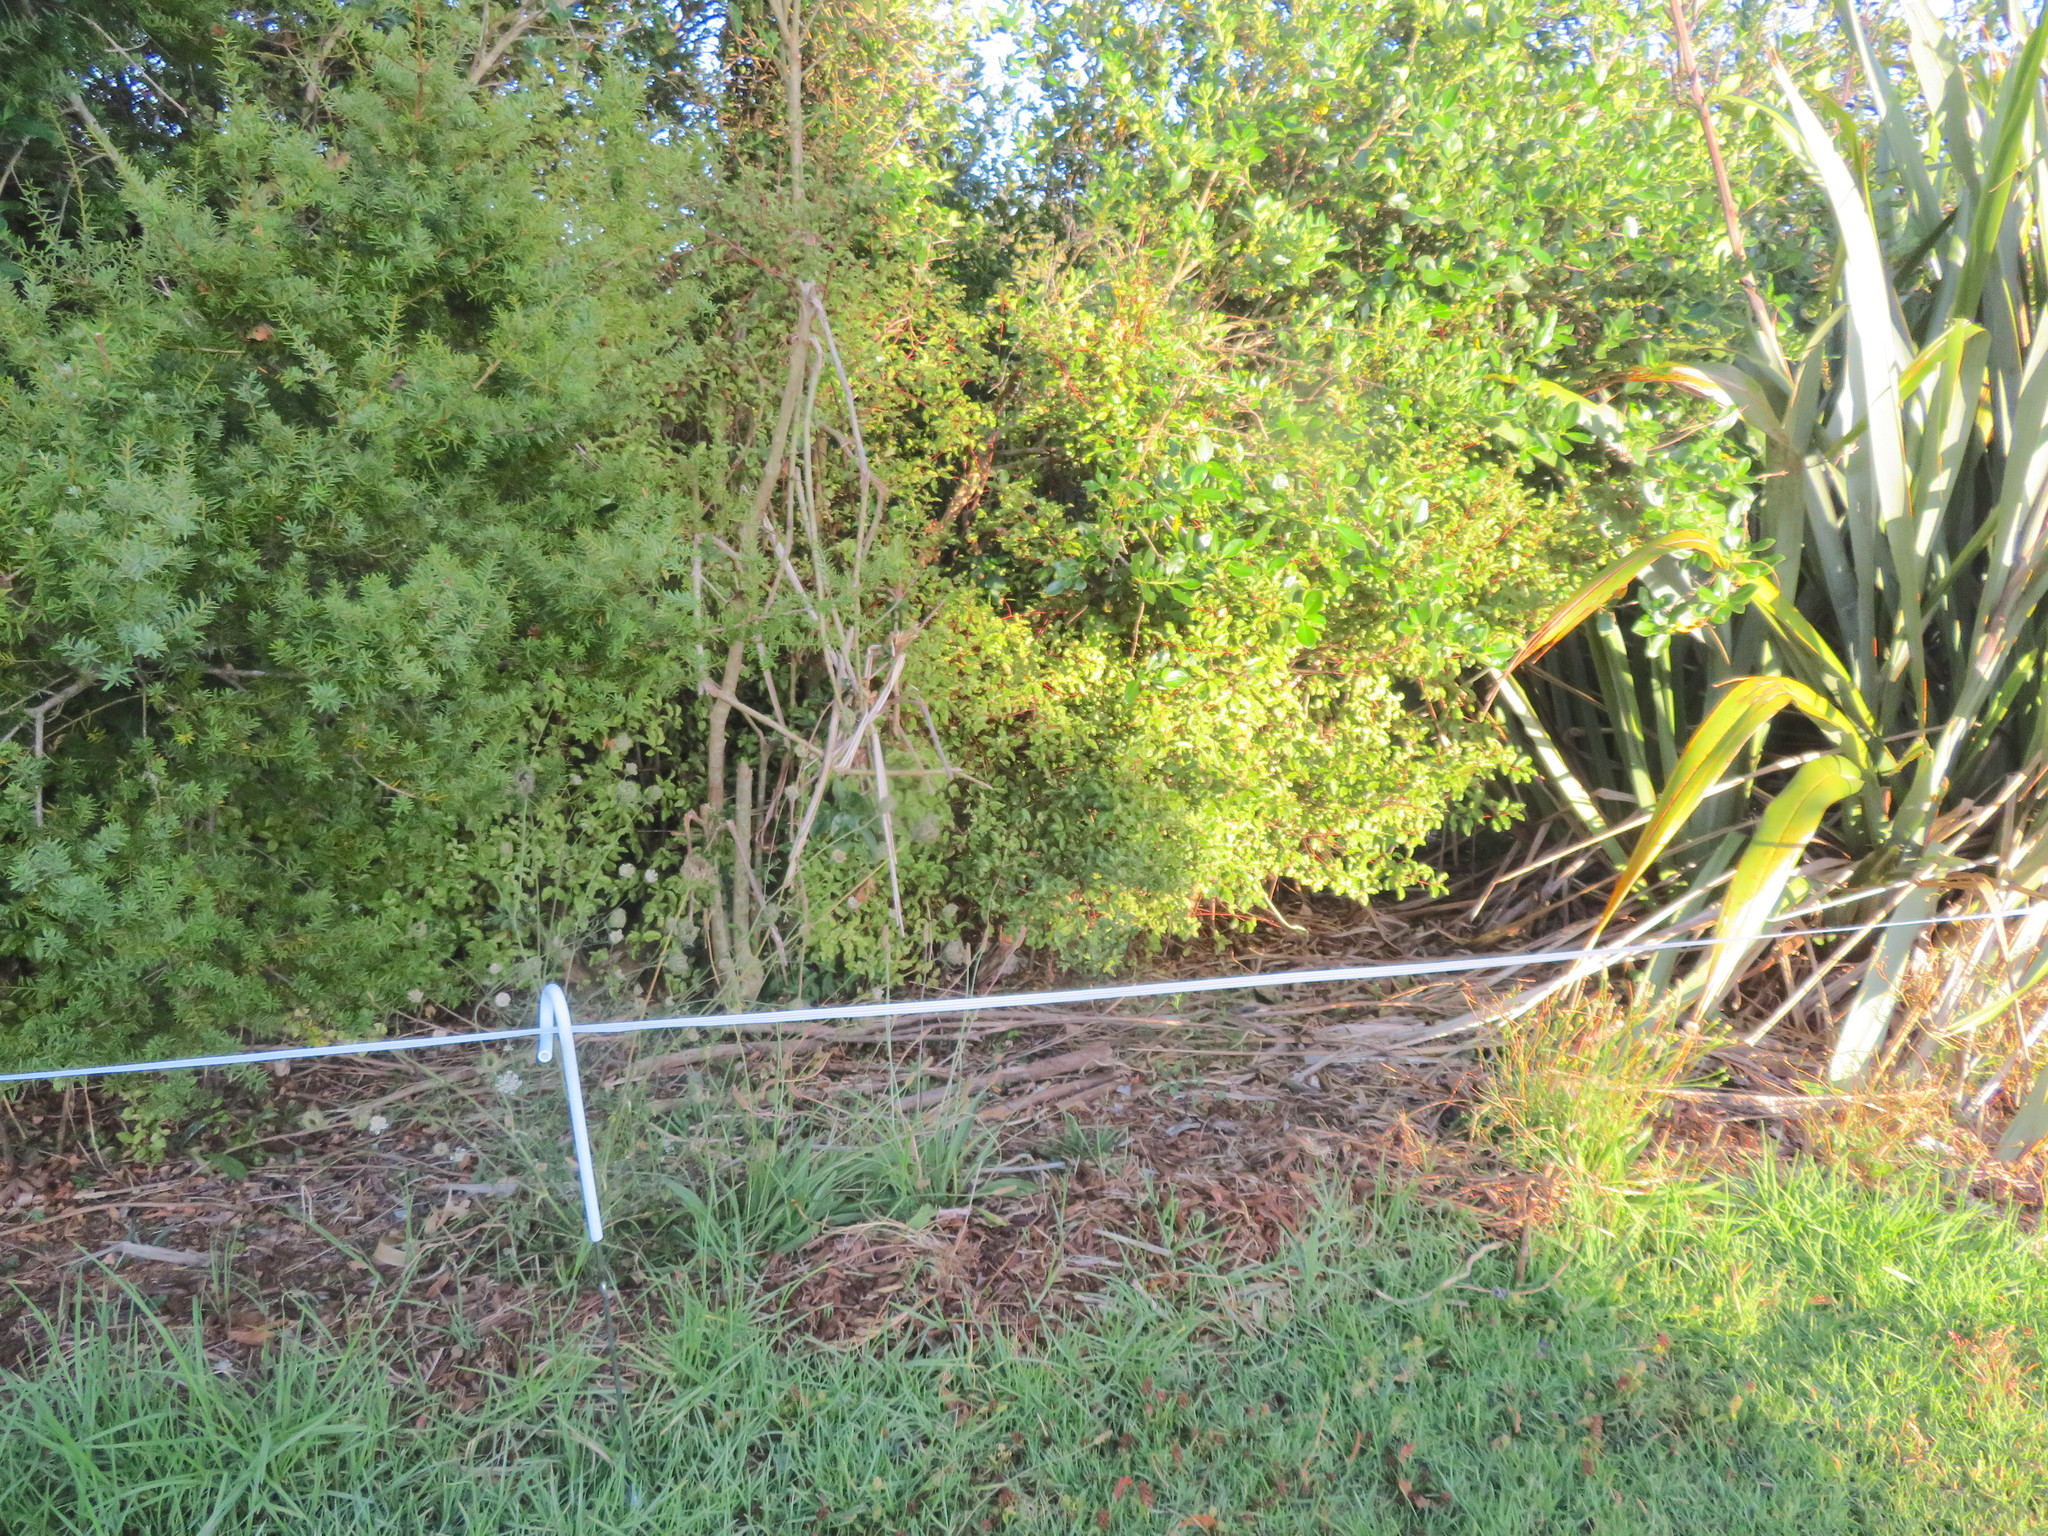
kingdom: Plantae
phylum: Tracheophyta
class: Liliopsida
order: Poales
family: Poaceae
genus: Cenchrus
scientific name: Cenchrus clandestinus
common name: Kikuyugrass
